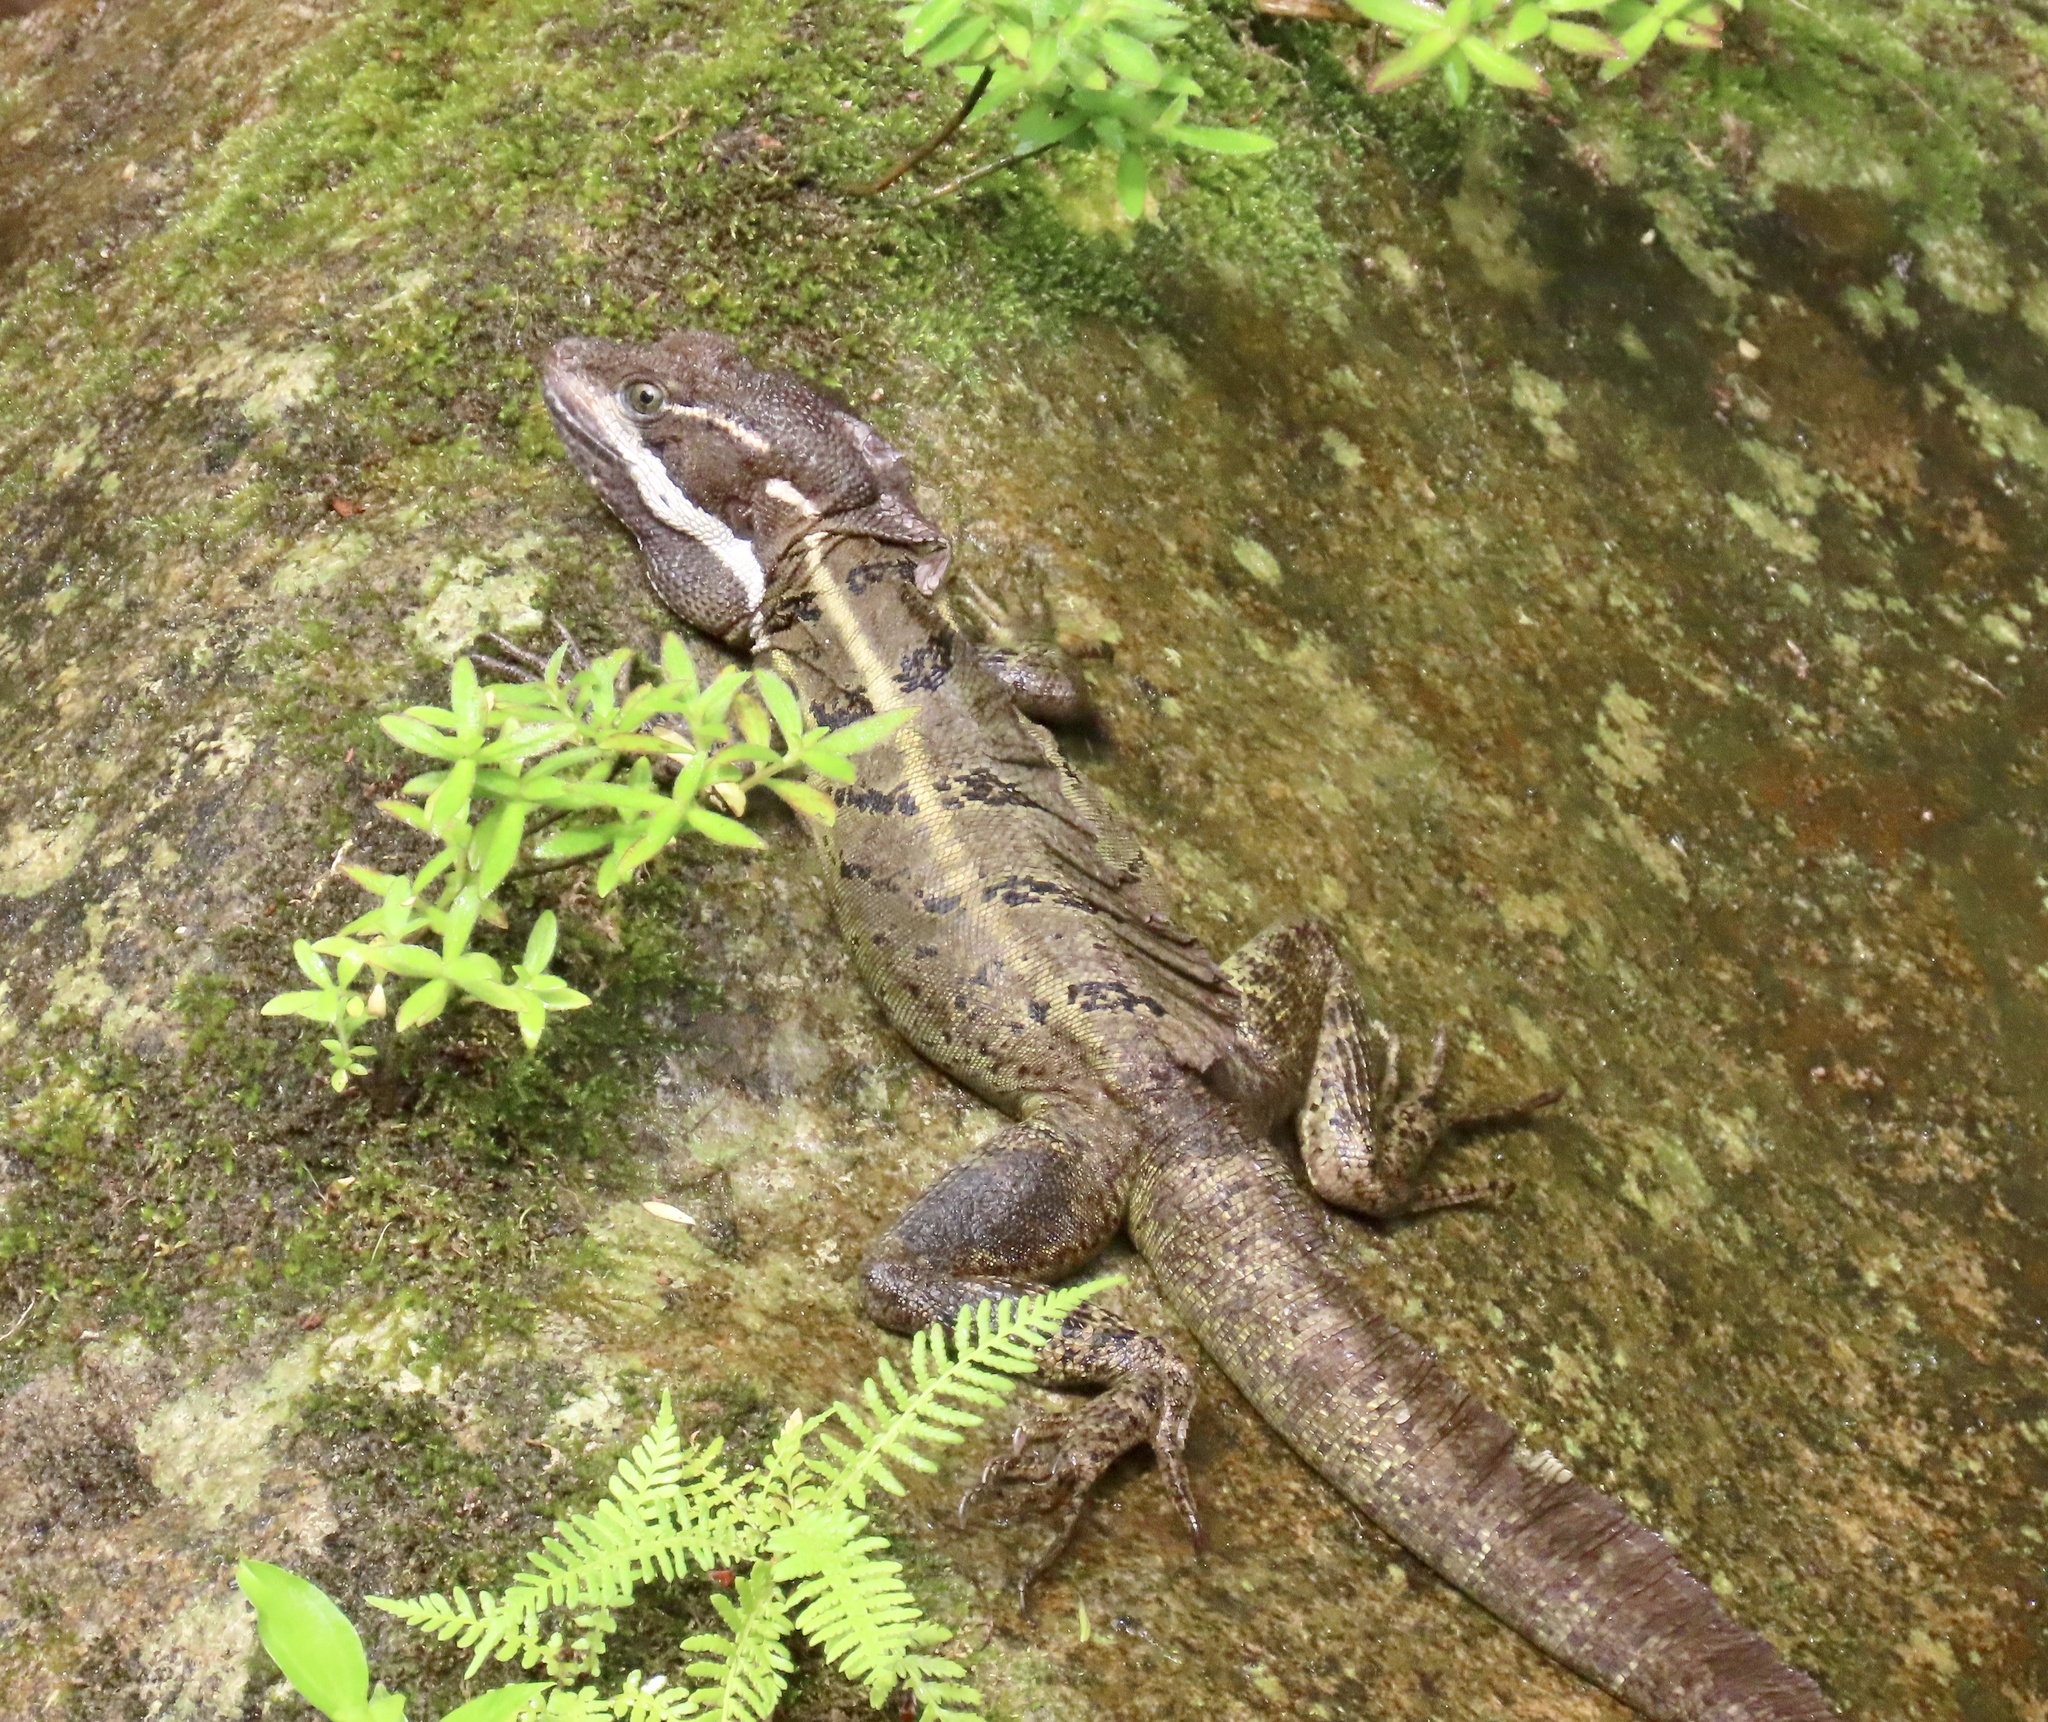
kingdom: Animalia
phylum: Chordata
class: Squamata
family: Corytophanidae
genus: Basiliscus
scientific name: Basiliscus basiliscus
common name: Common basilisk
